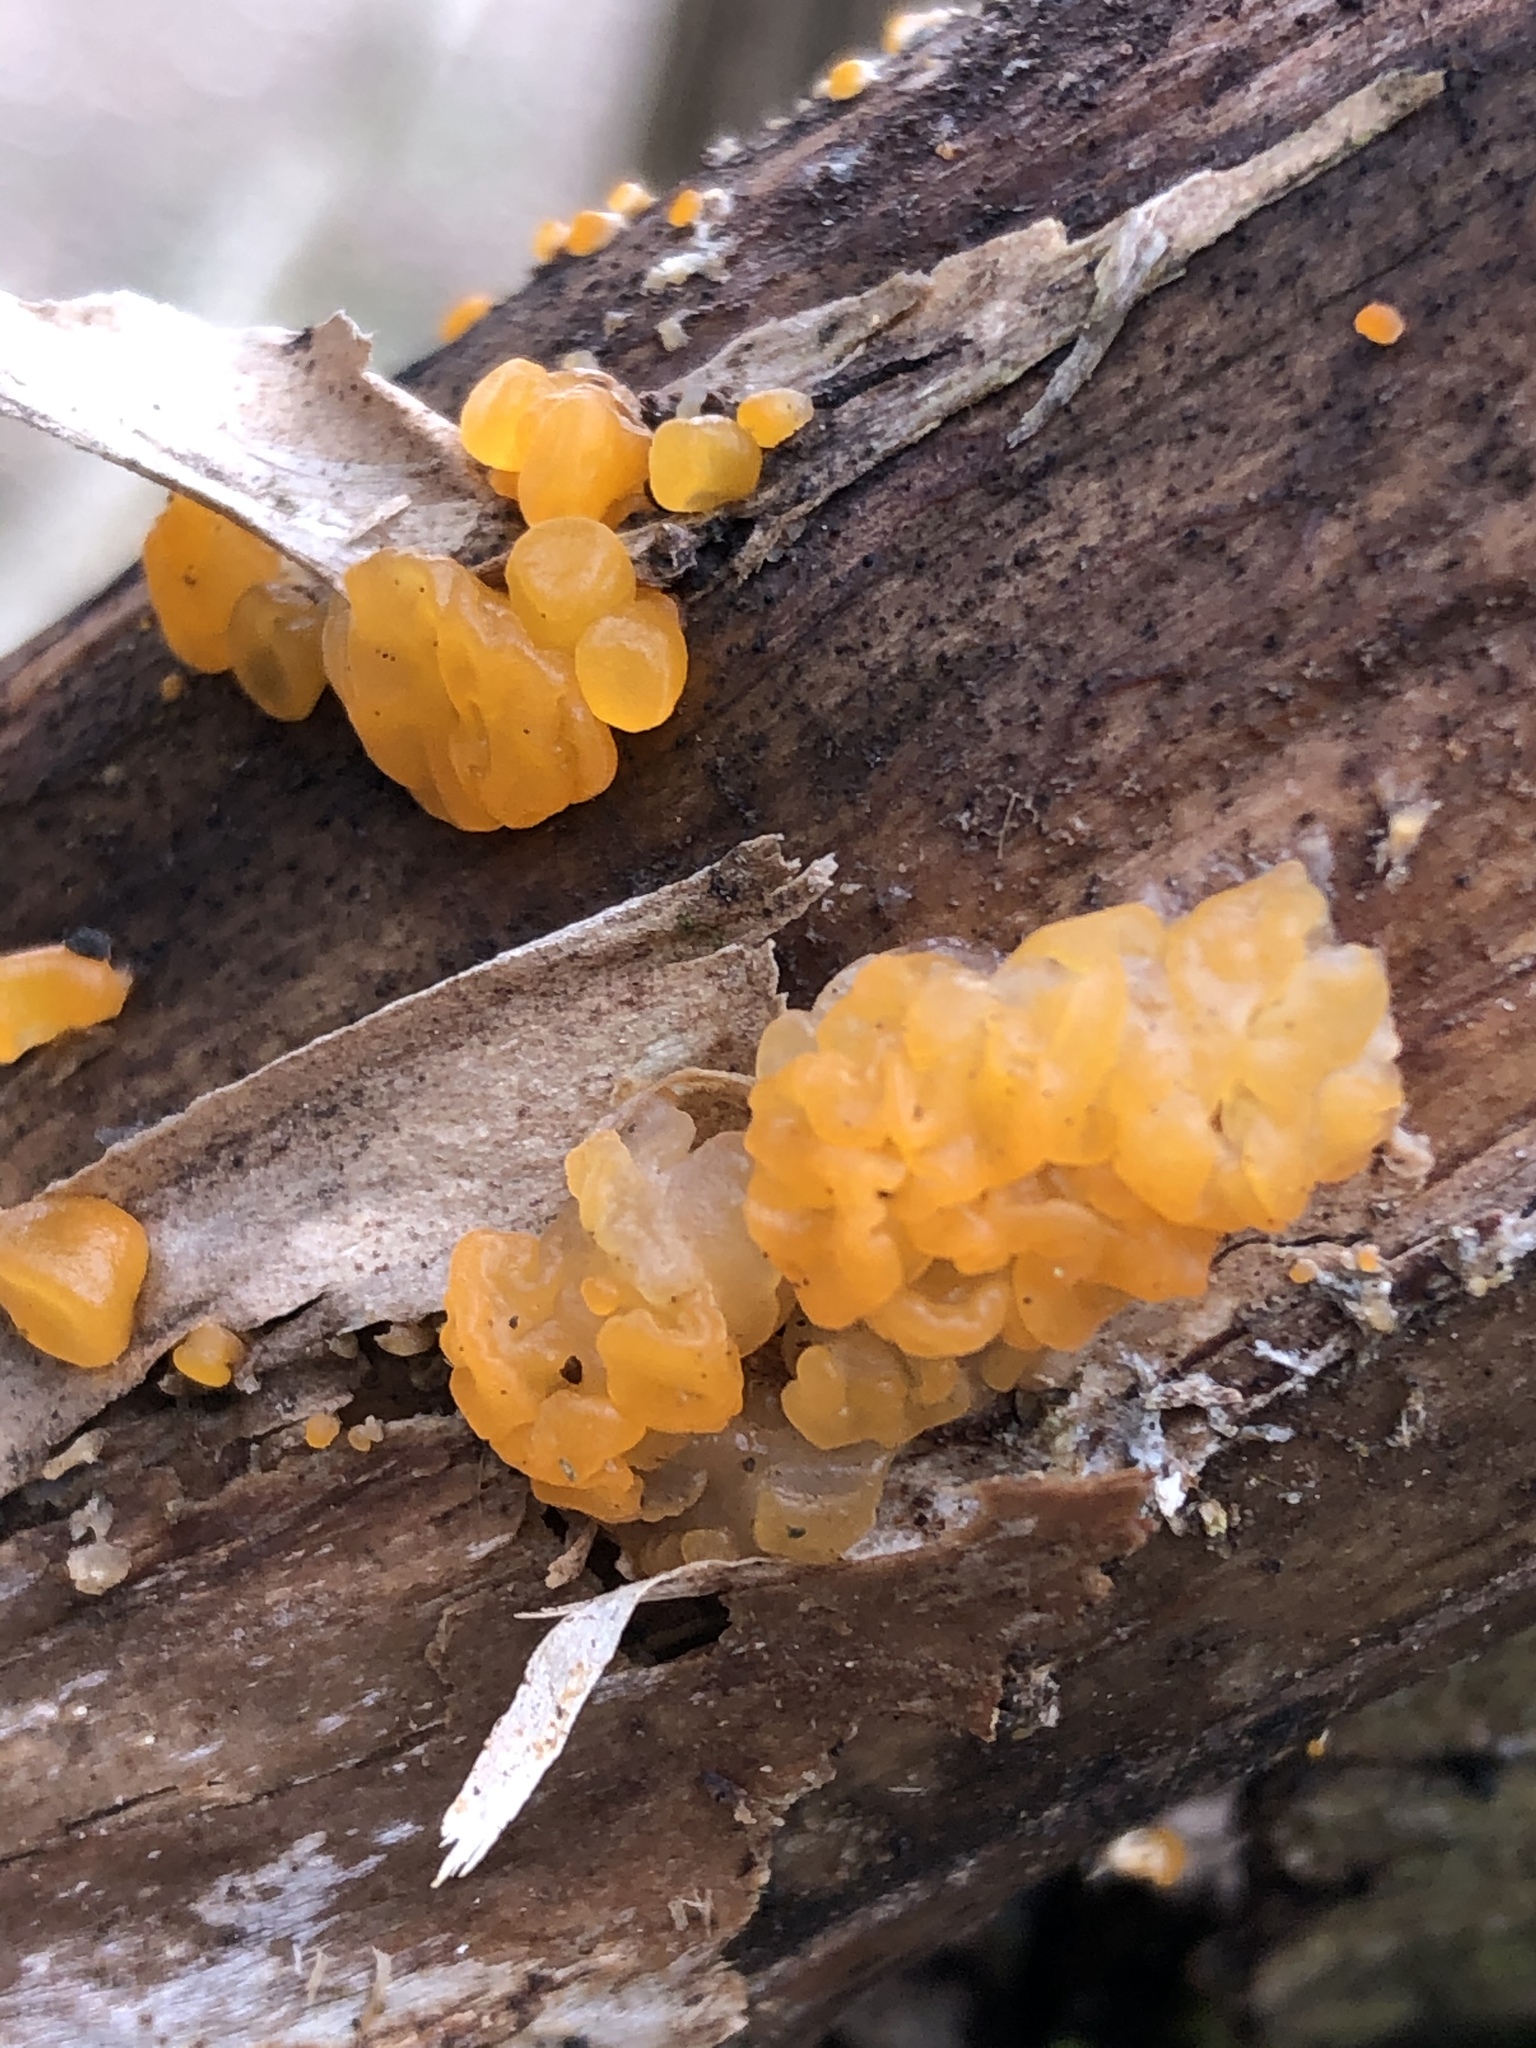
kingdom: Fungi
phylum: Basidiomycota
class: Dacrymycetes
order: Dacrymycetales
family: Dacrymycetaceae
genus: Dacrymyces
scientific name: Dacrymyces chrysospermus
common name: Orange jelly spot
